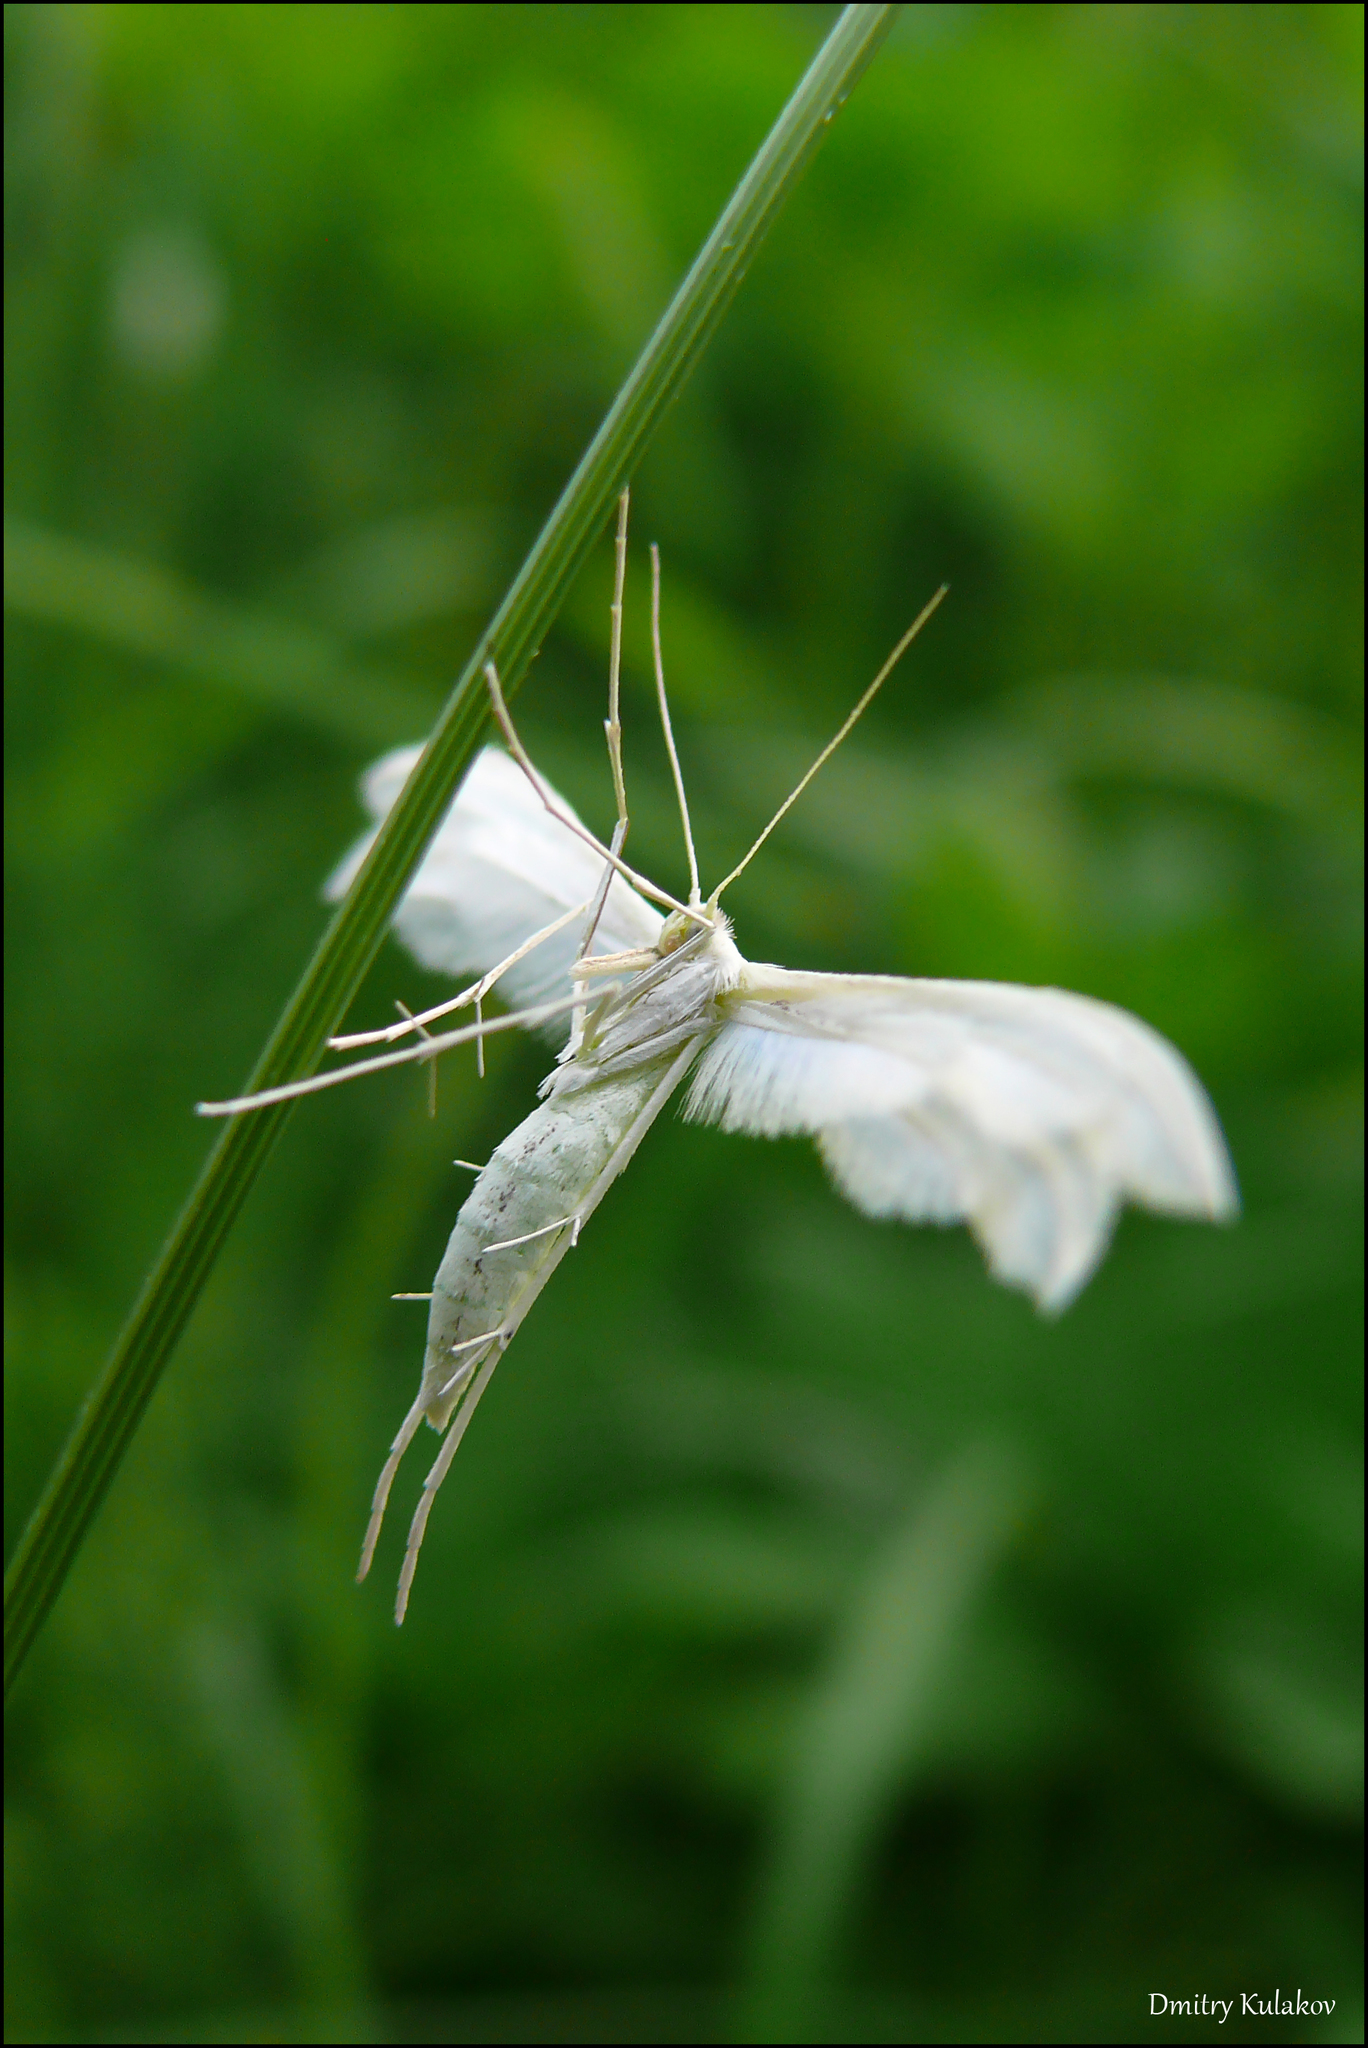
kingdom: Animalia
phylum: Arthropoda
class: Insecta
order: Lepidoptera
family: Pterophoridae
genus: Pterophorus
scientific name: Pterophorus pentadactyla
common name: White plume moth
